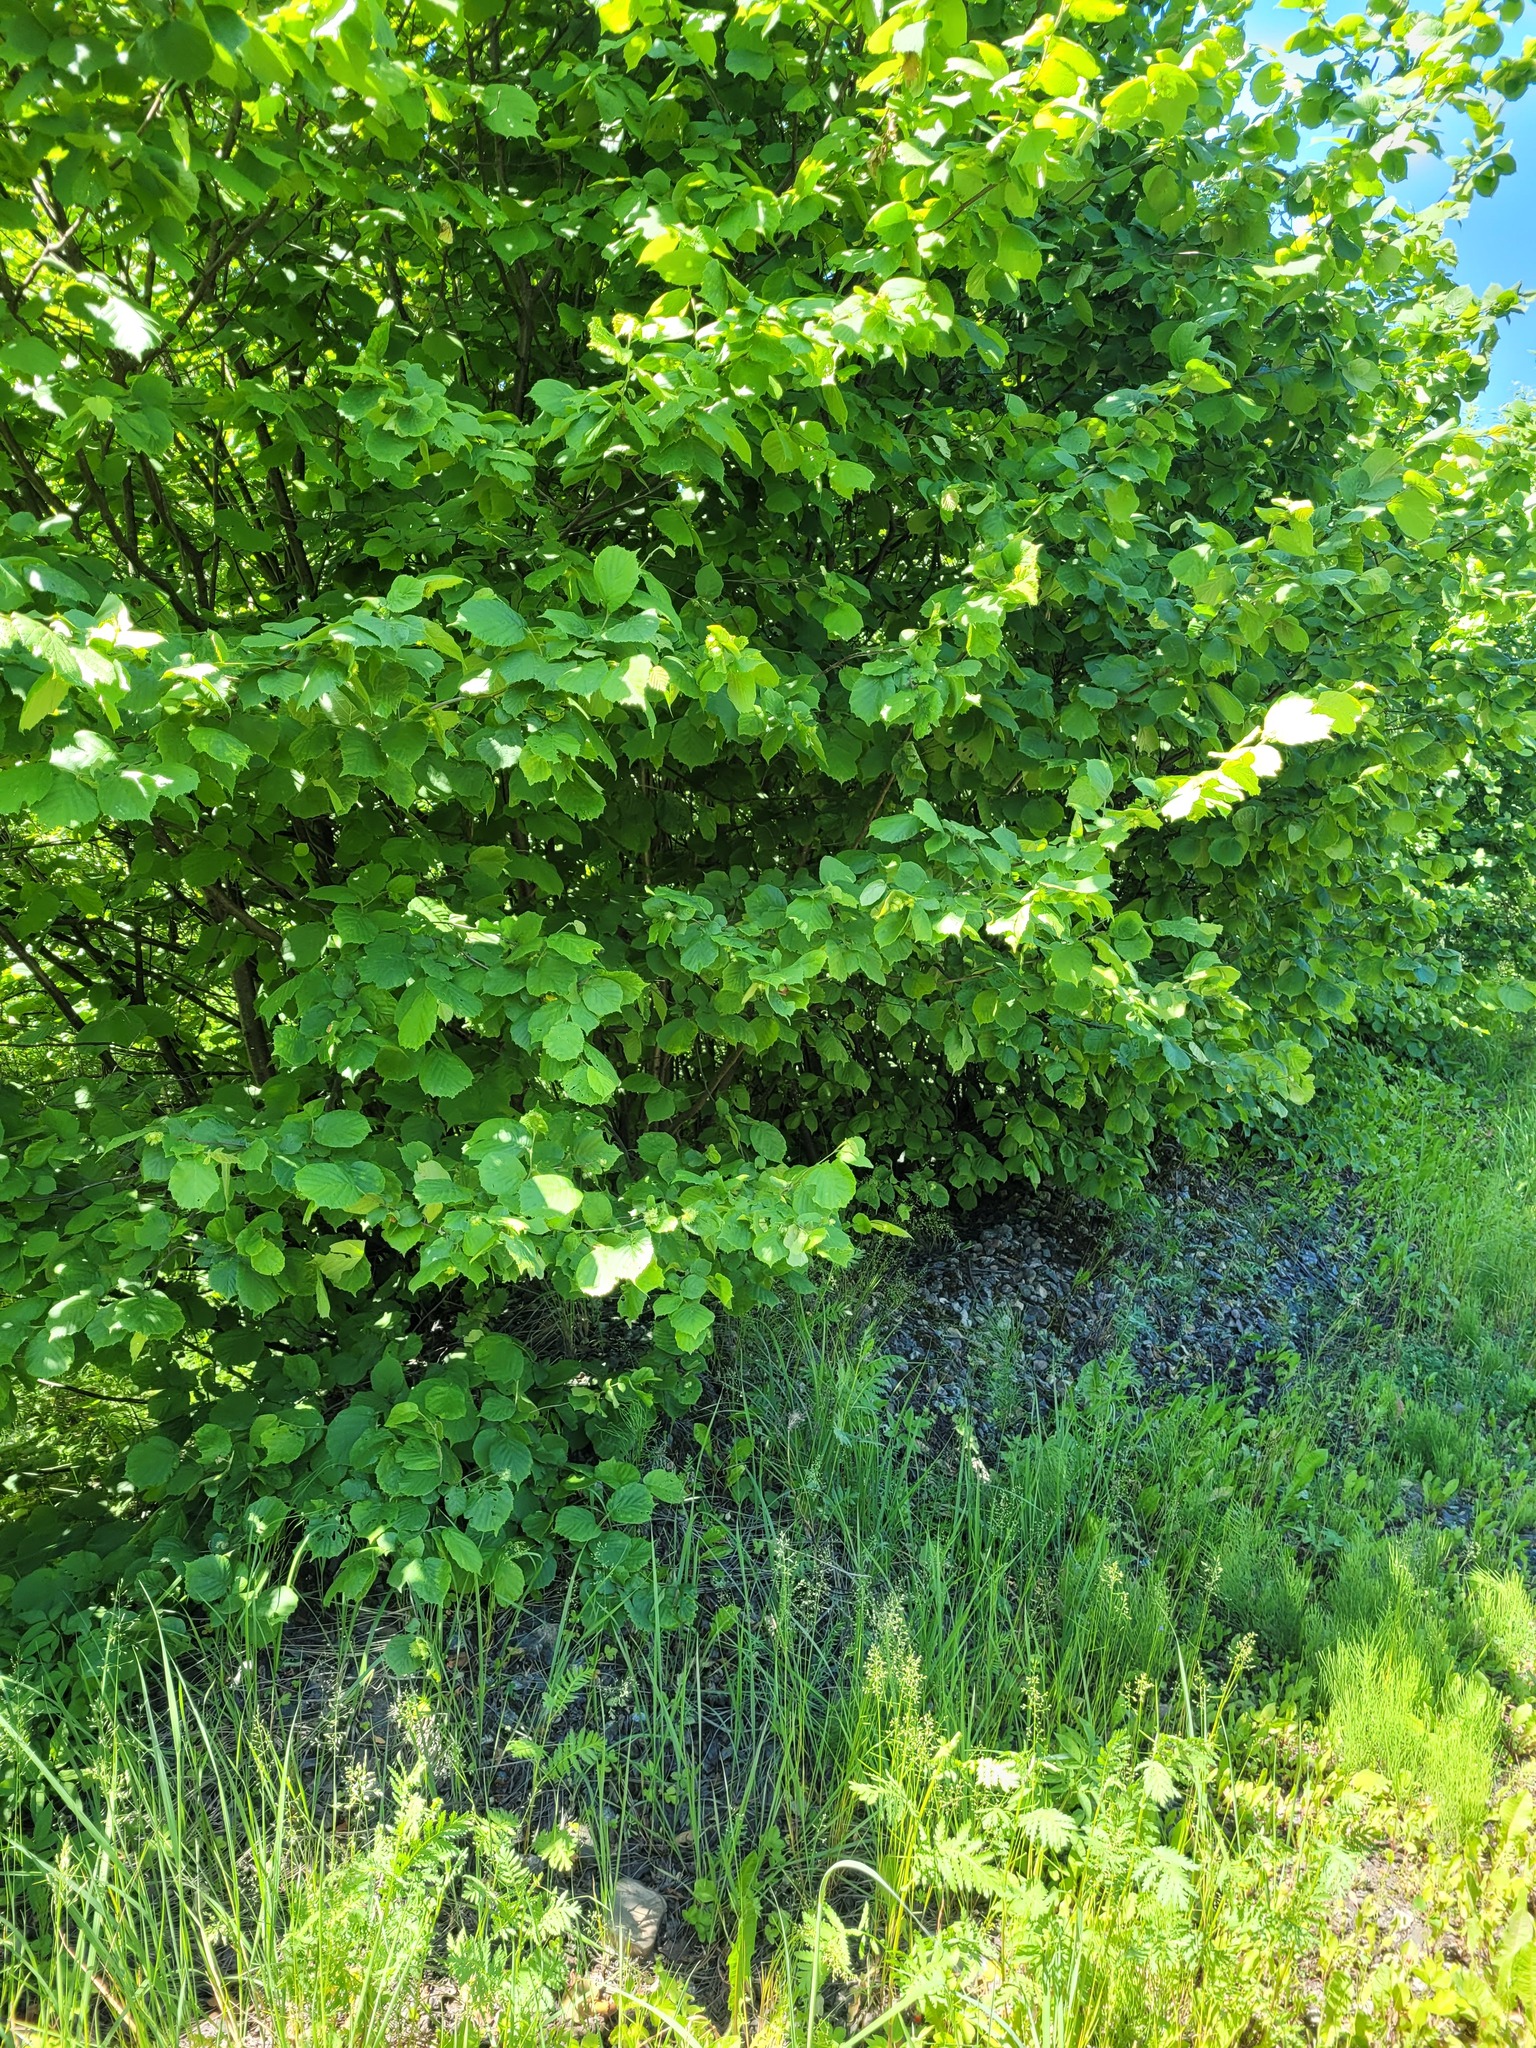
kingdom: Plantae
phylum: Tracheophyta
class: Magnoliopsida
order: Fagales
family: Betulaceae
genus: Corylus
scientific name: Corylus avellana
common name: European hazel
